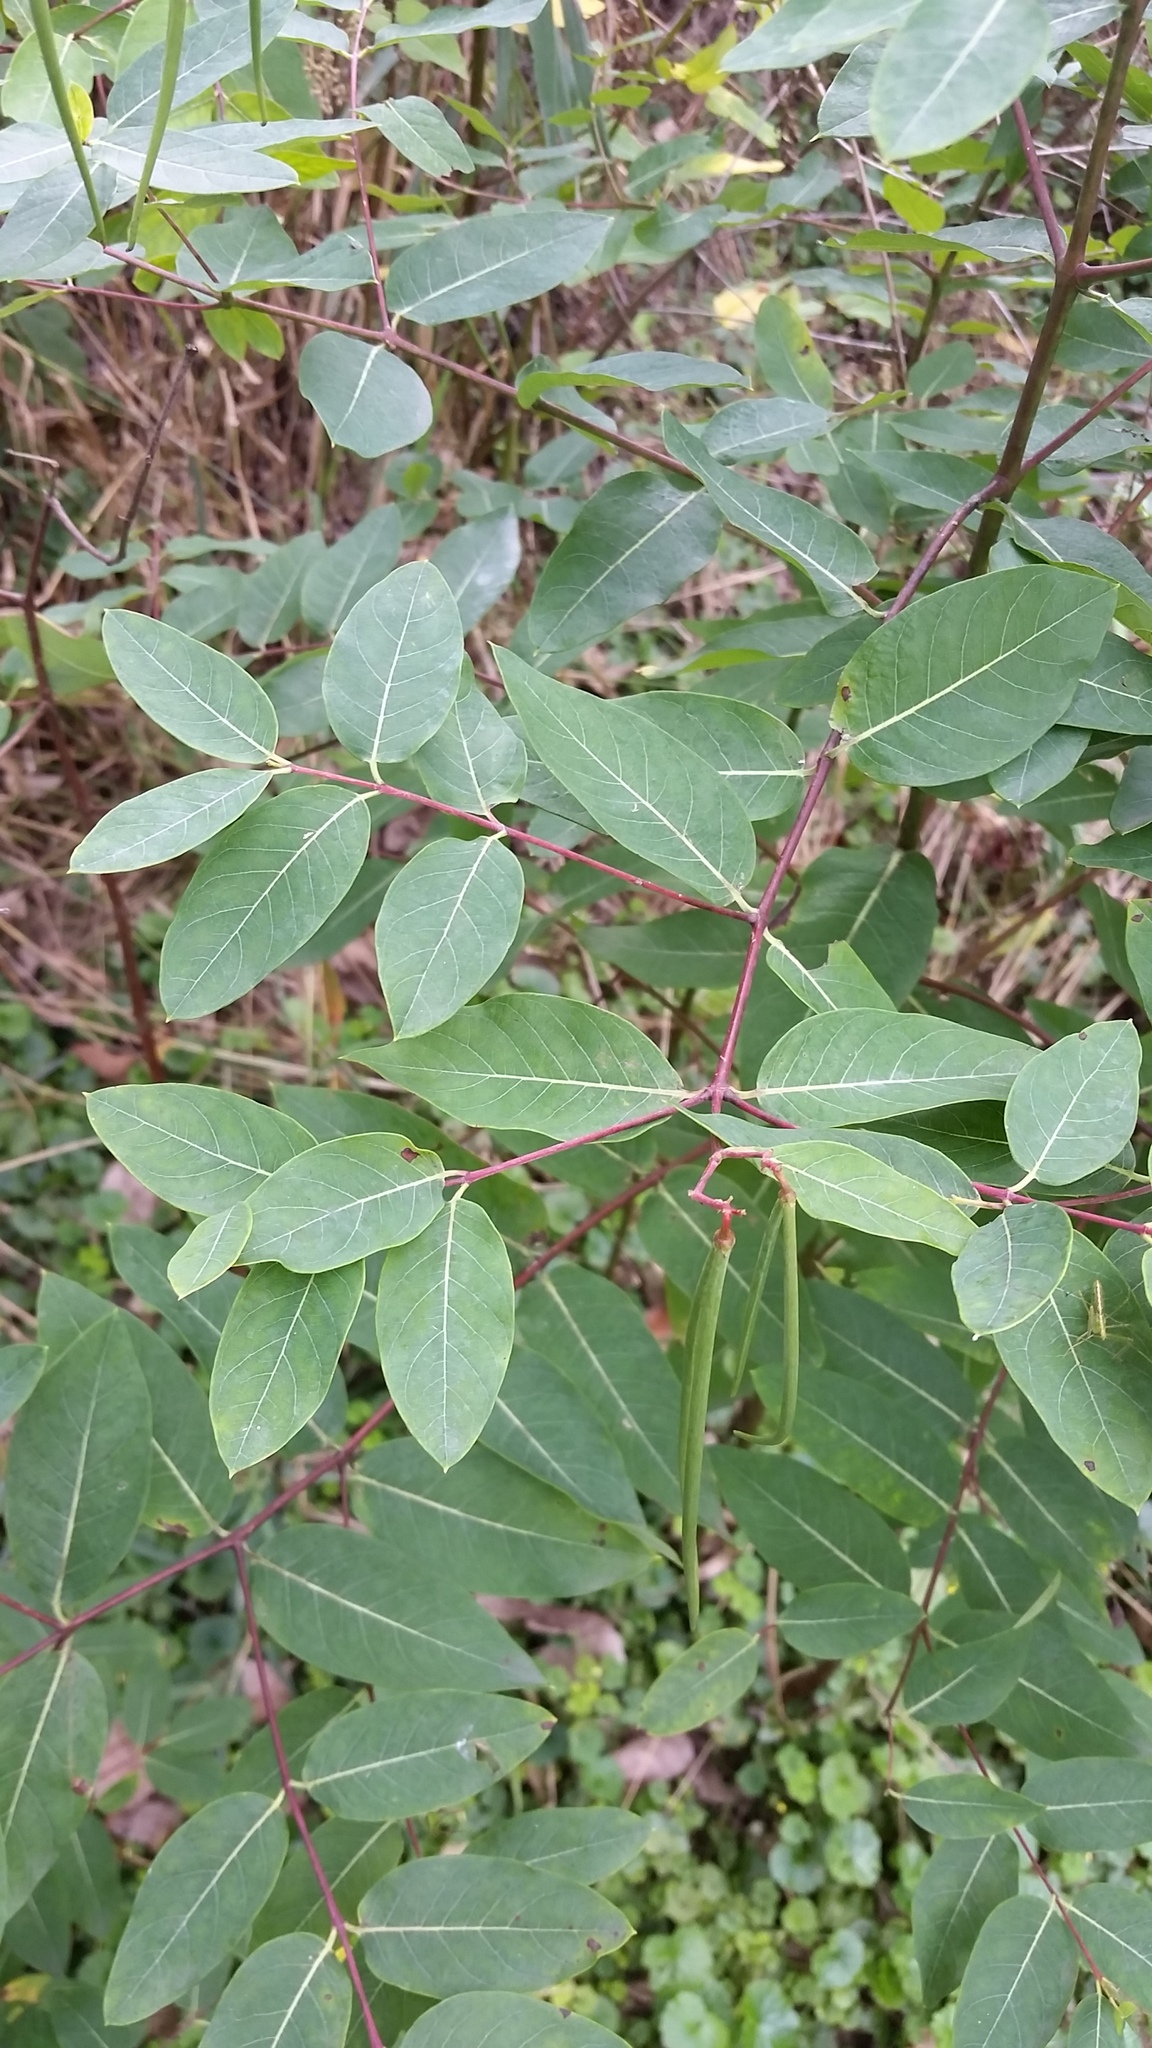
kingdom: Plantae
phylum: Tracheophyta
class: Magnoliopsida
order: Gentianales
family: Apocynaceae
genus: Apocynum
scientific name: Apocynum cannabinum
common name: Hemp dogbane
